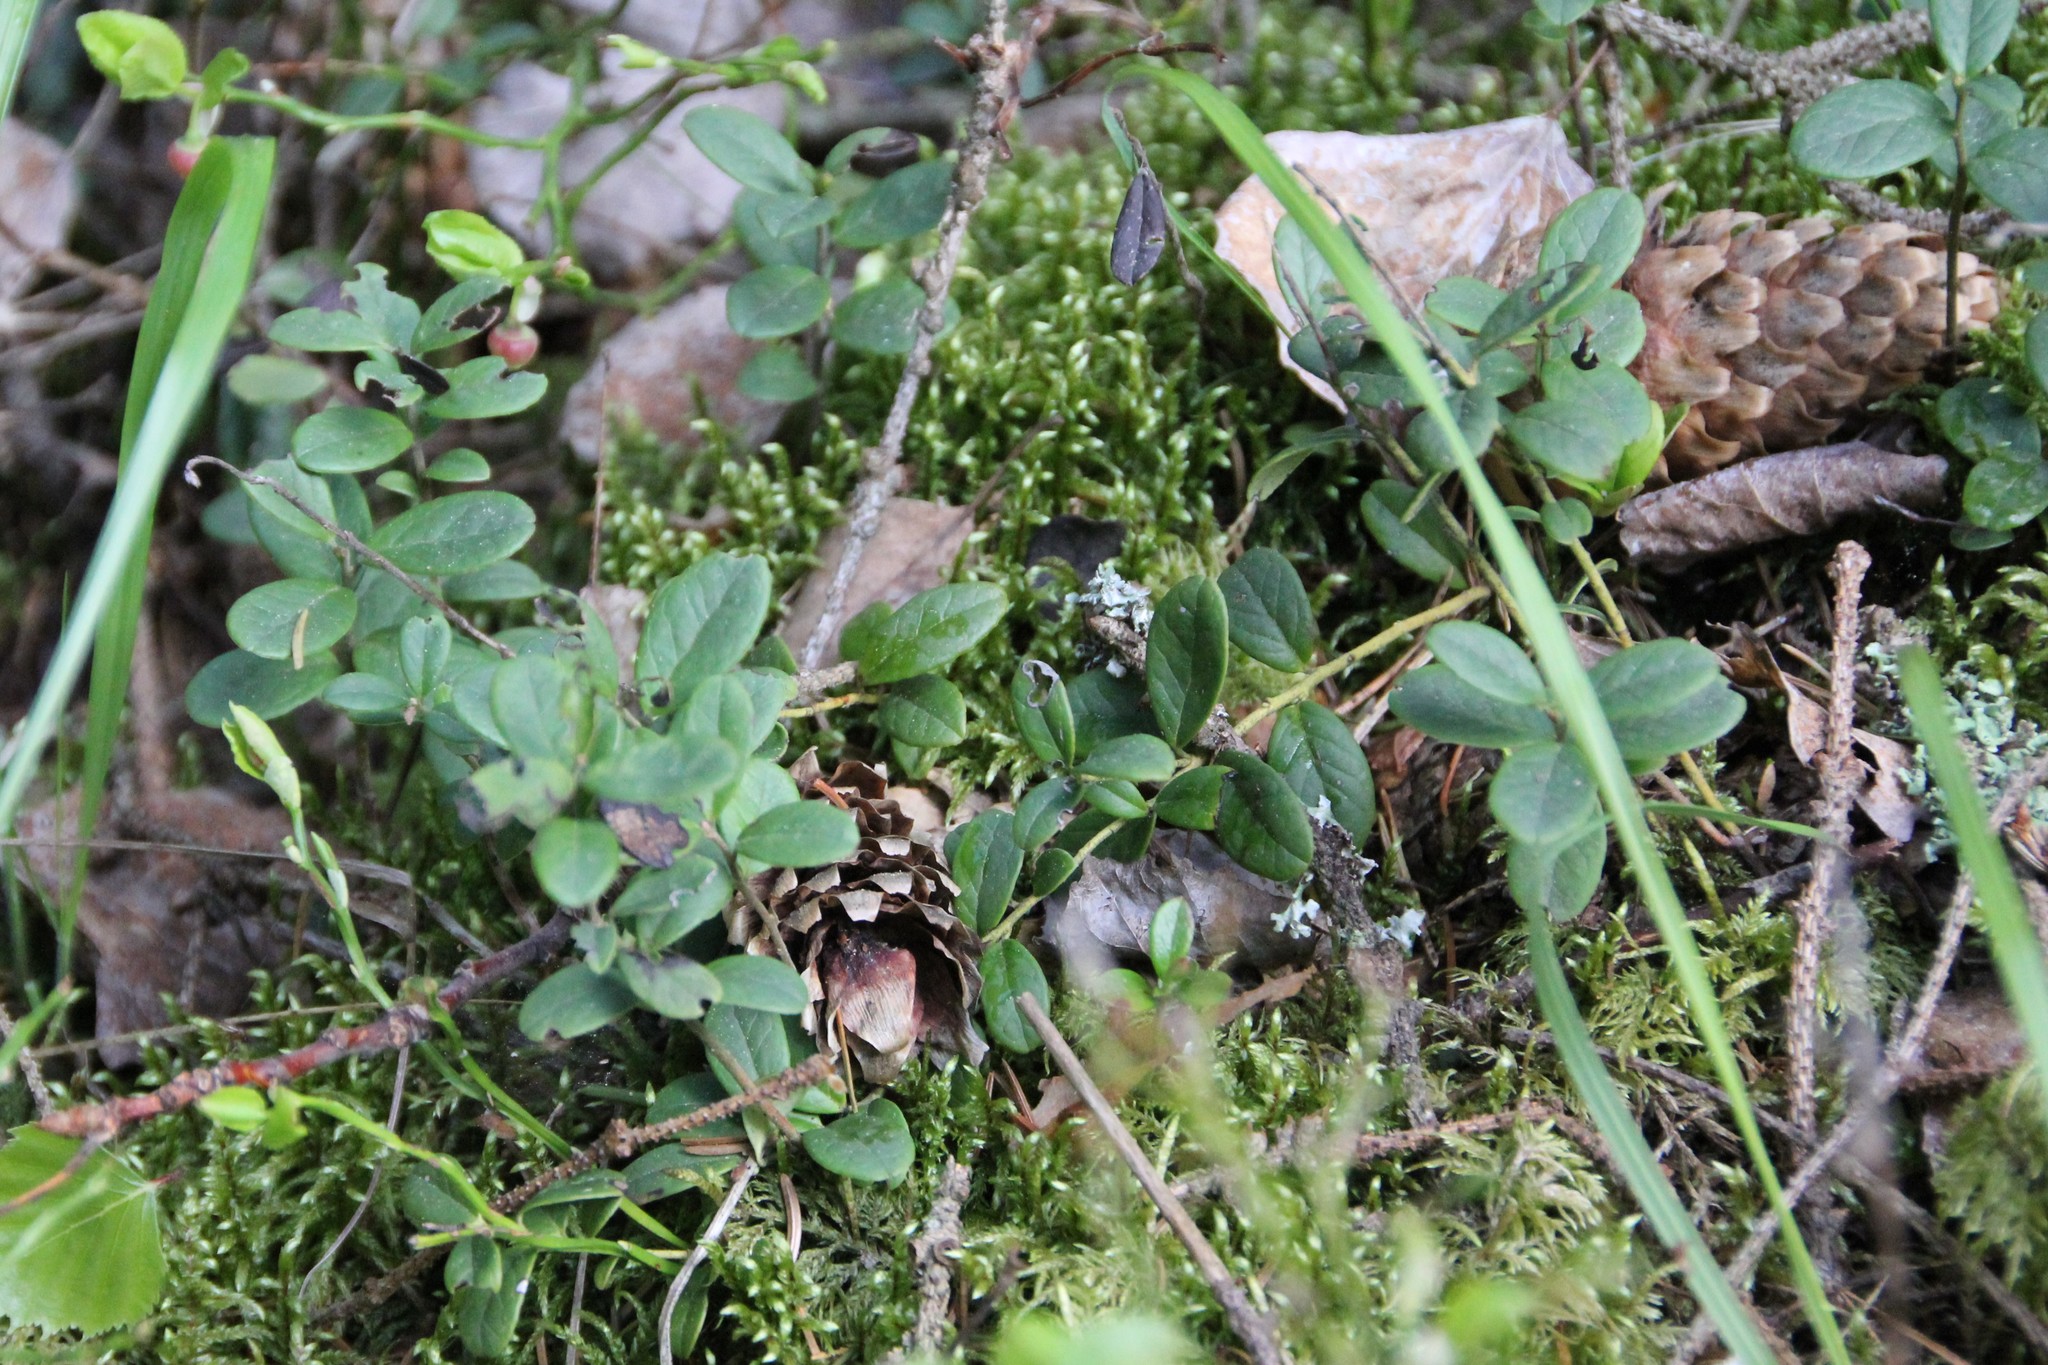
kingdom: Plantae
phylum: Tracheophyta
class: Magnoliopsida
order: Ericales
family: Ericaceae
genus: Vaccinium
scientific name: Vaccinium vitis-idaea
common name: Cowberry
